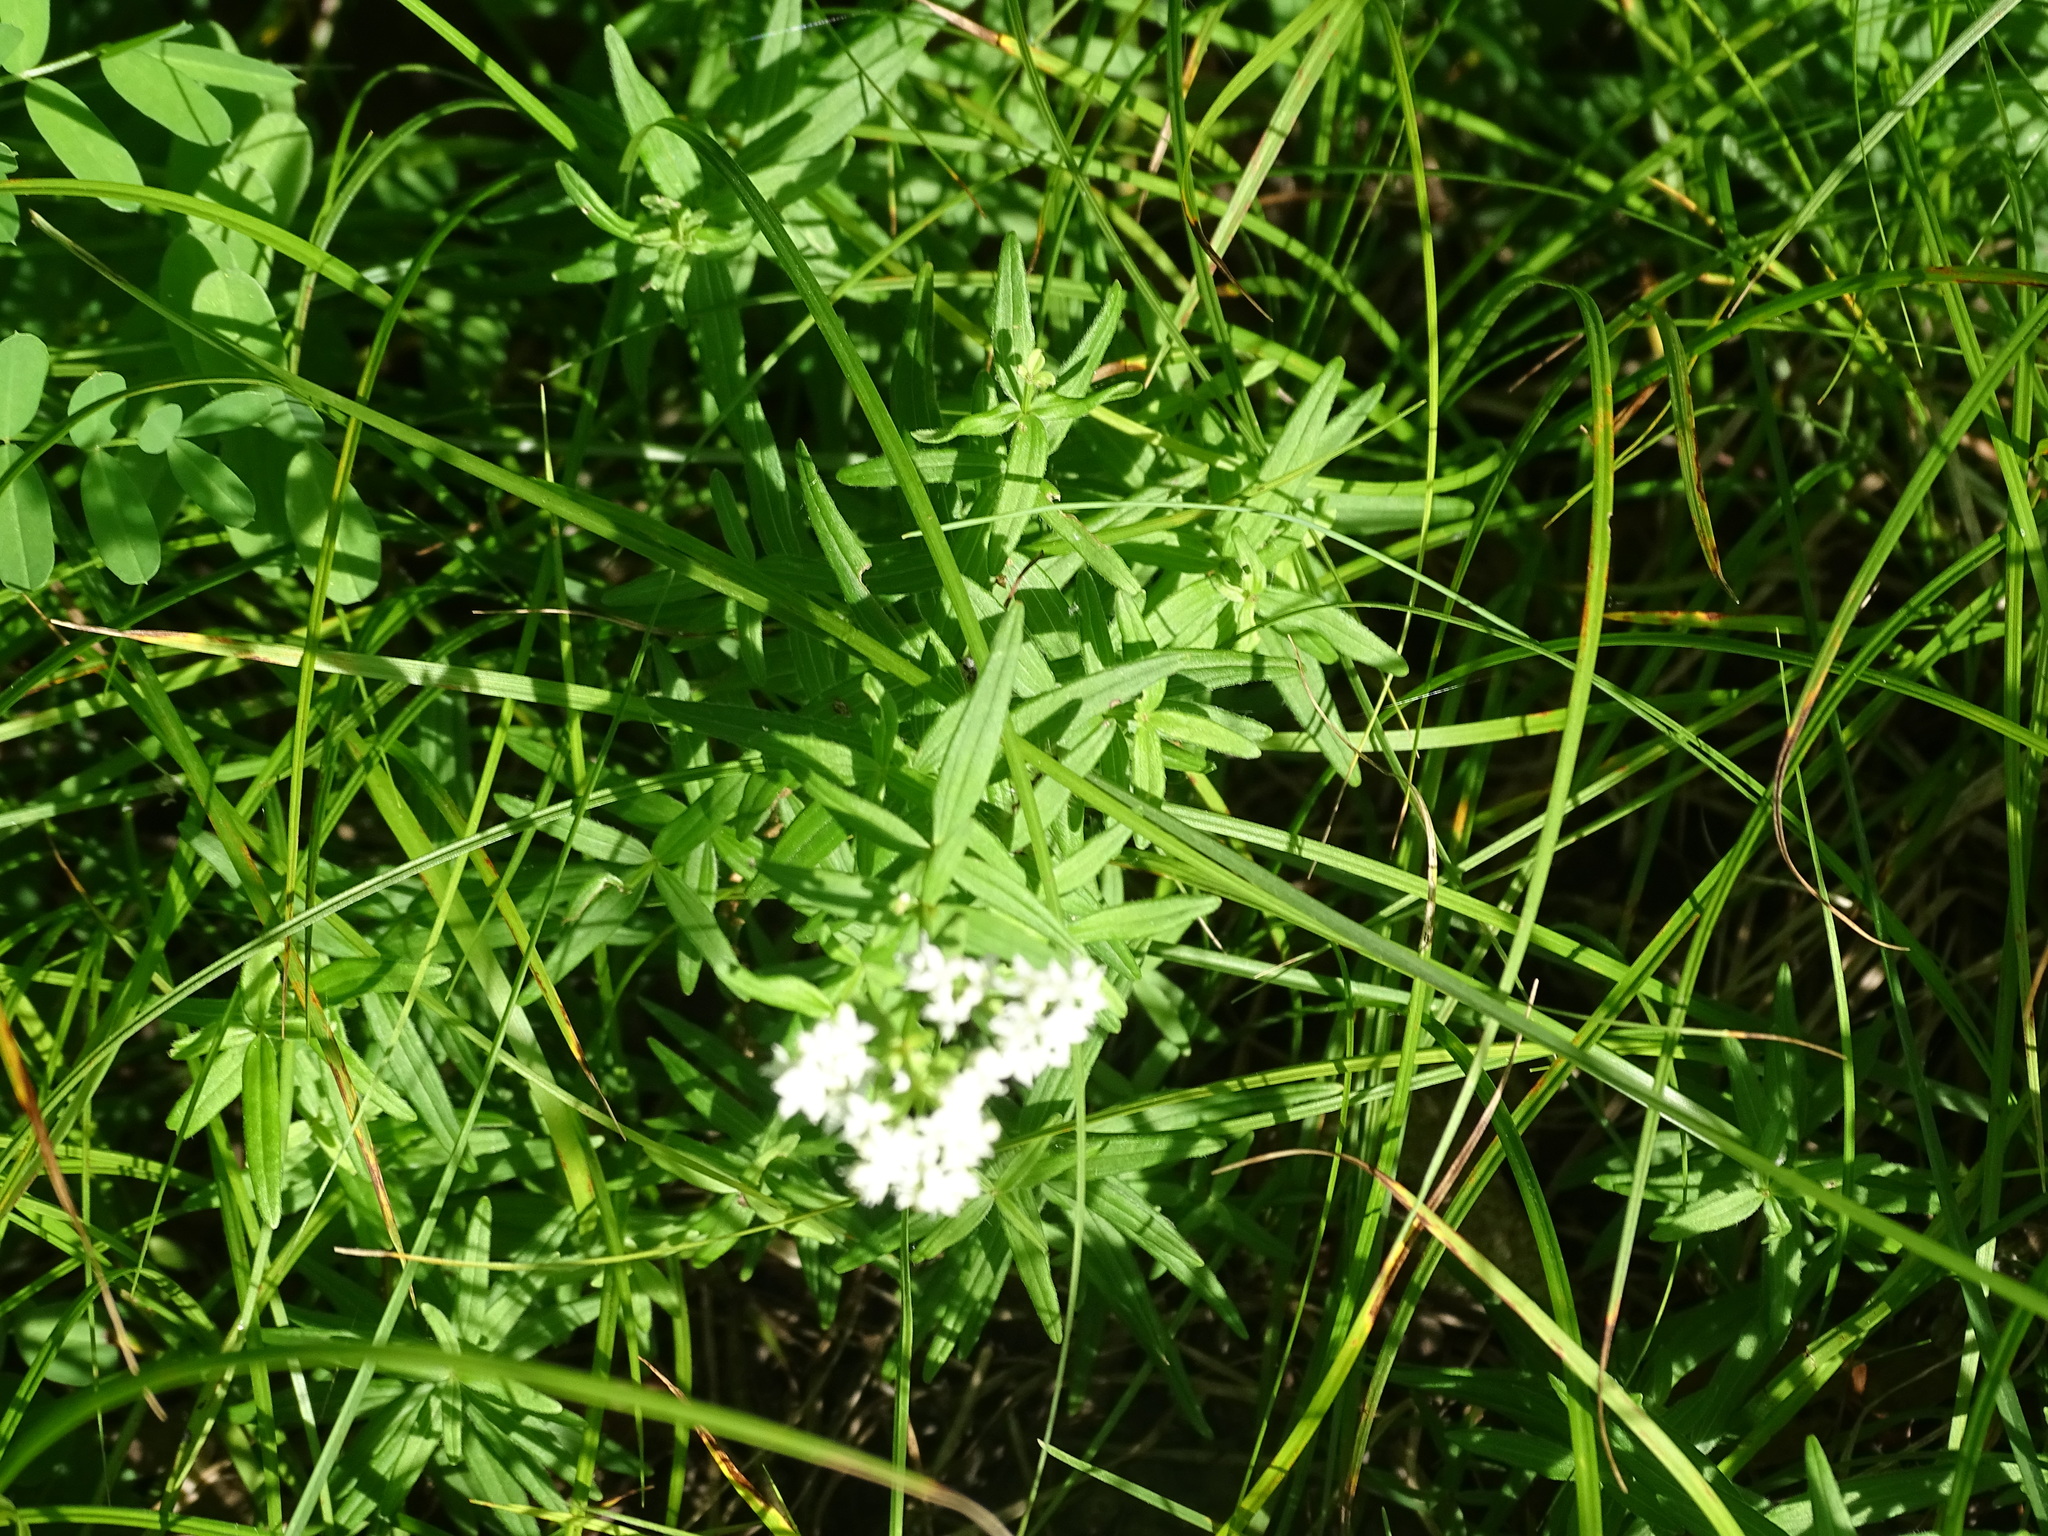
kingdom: Plantae
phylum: Tracheophyta
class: Magnoliopsida
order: Gentianales
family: Rubiaceae
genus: Galium
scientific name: Galium boreale
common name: Northern bedstraw
